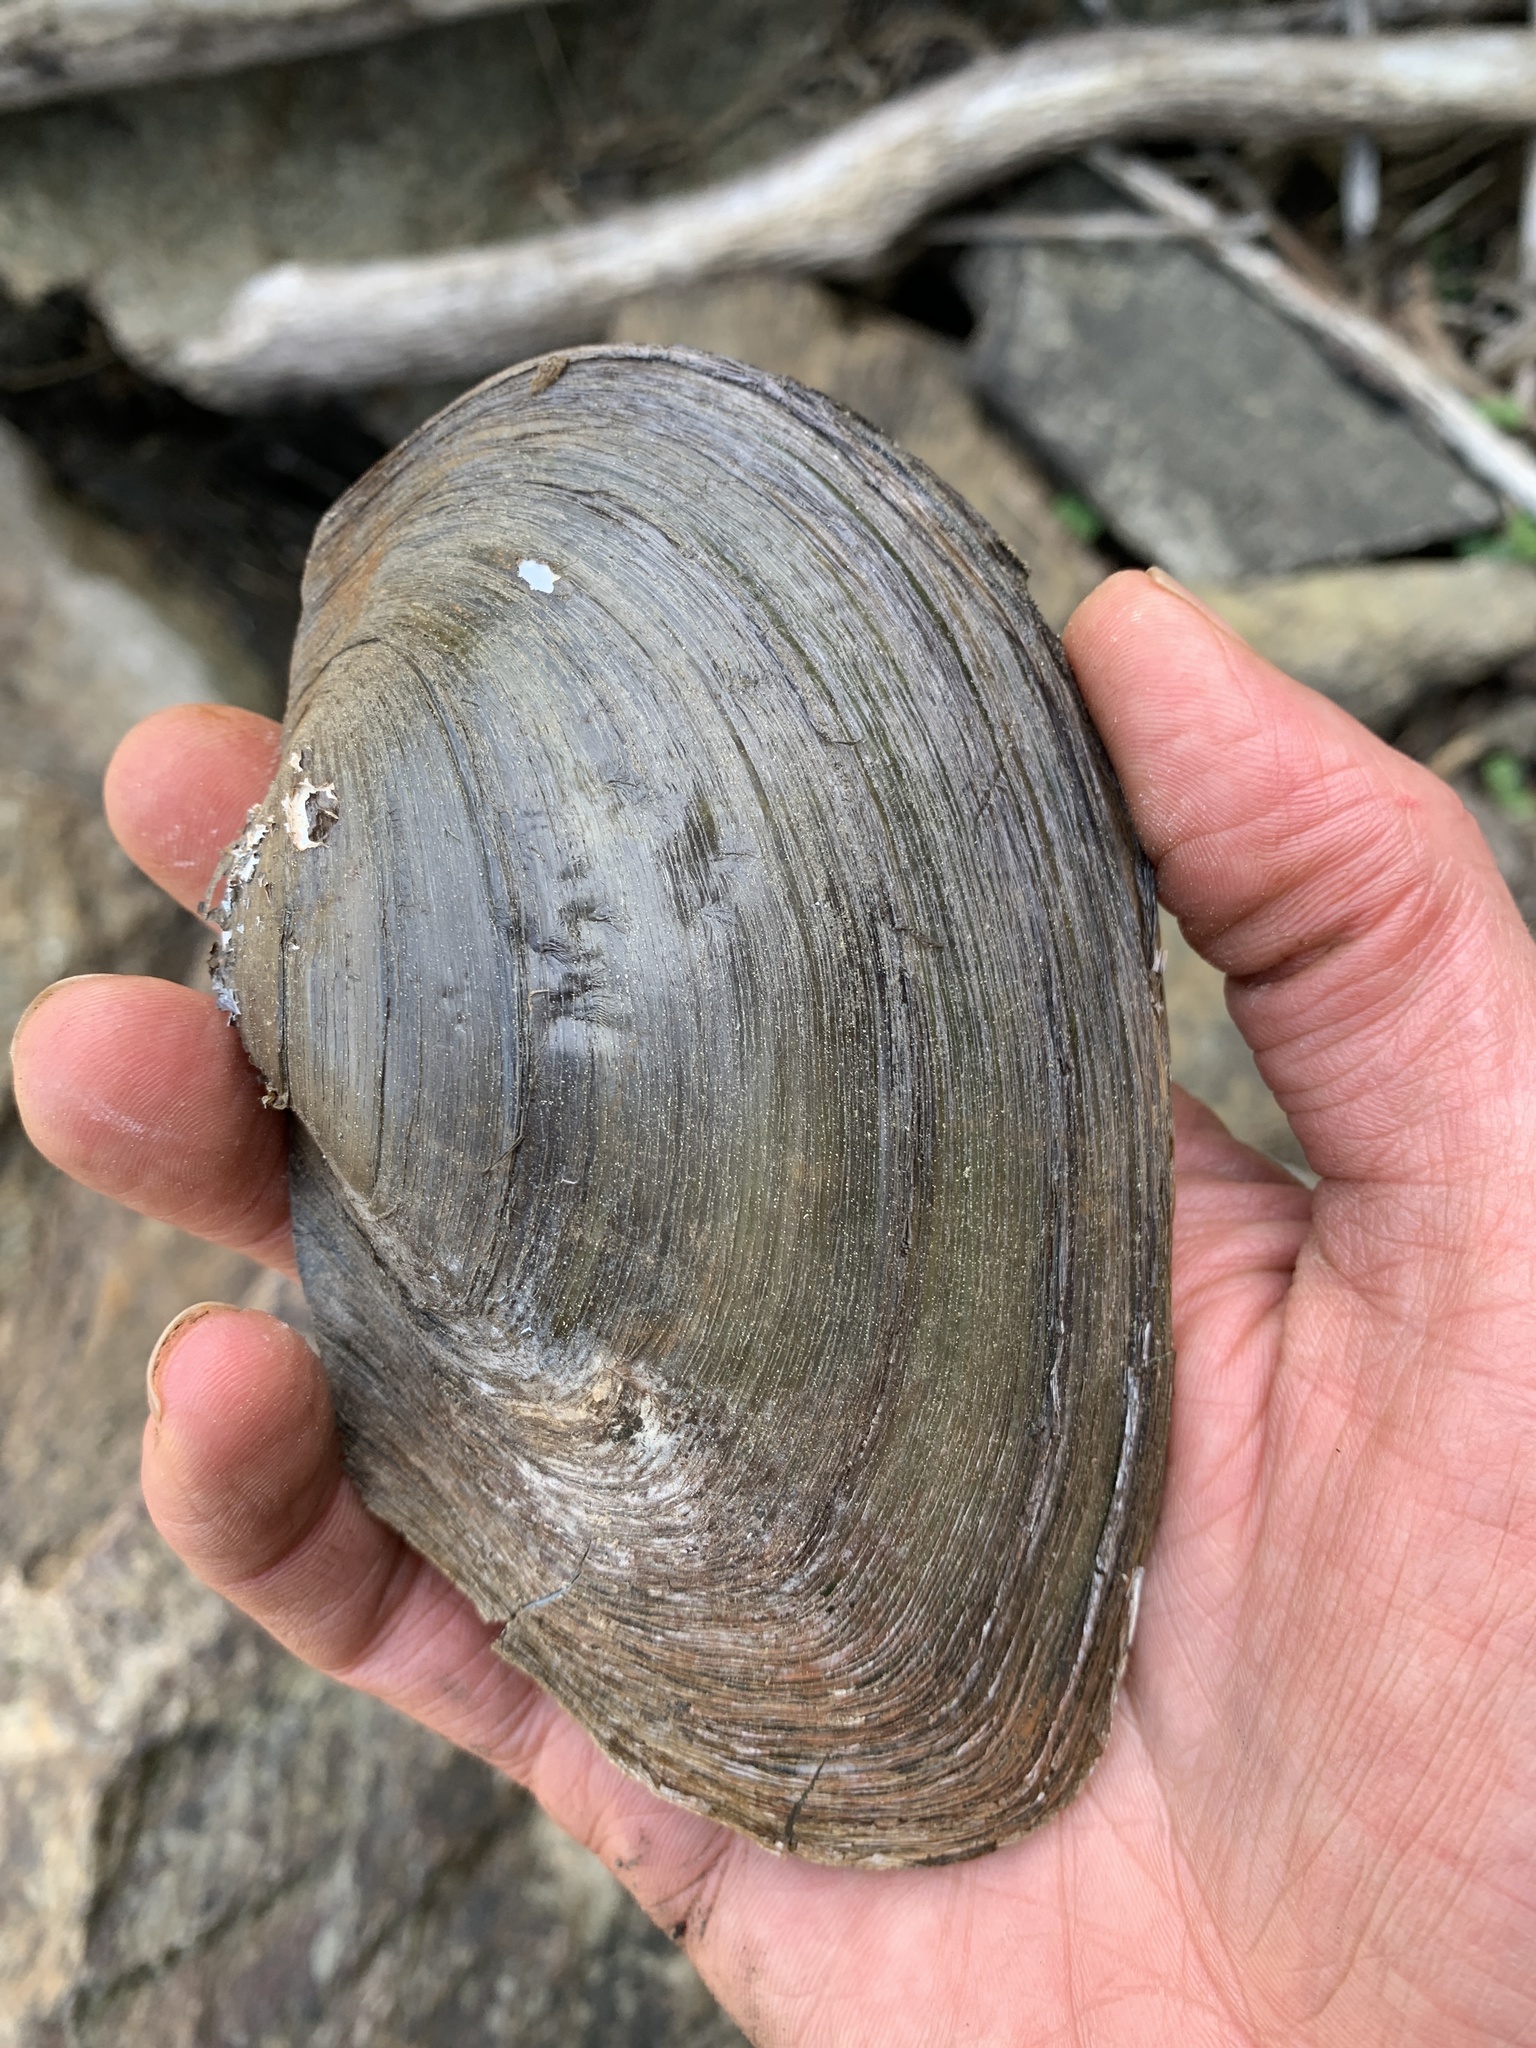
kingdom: Animalia
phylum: Mollusca
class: Bivalvia
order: Unionida
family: Unionidae
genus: Pyganodon
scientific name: Pyganodon grandis
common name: Giant floater
